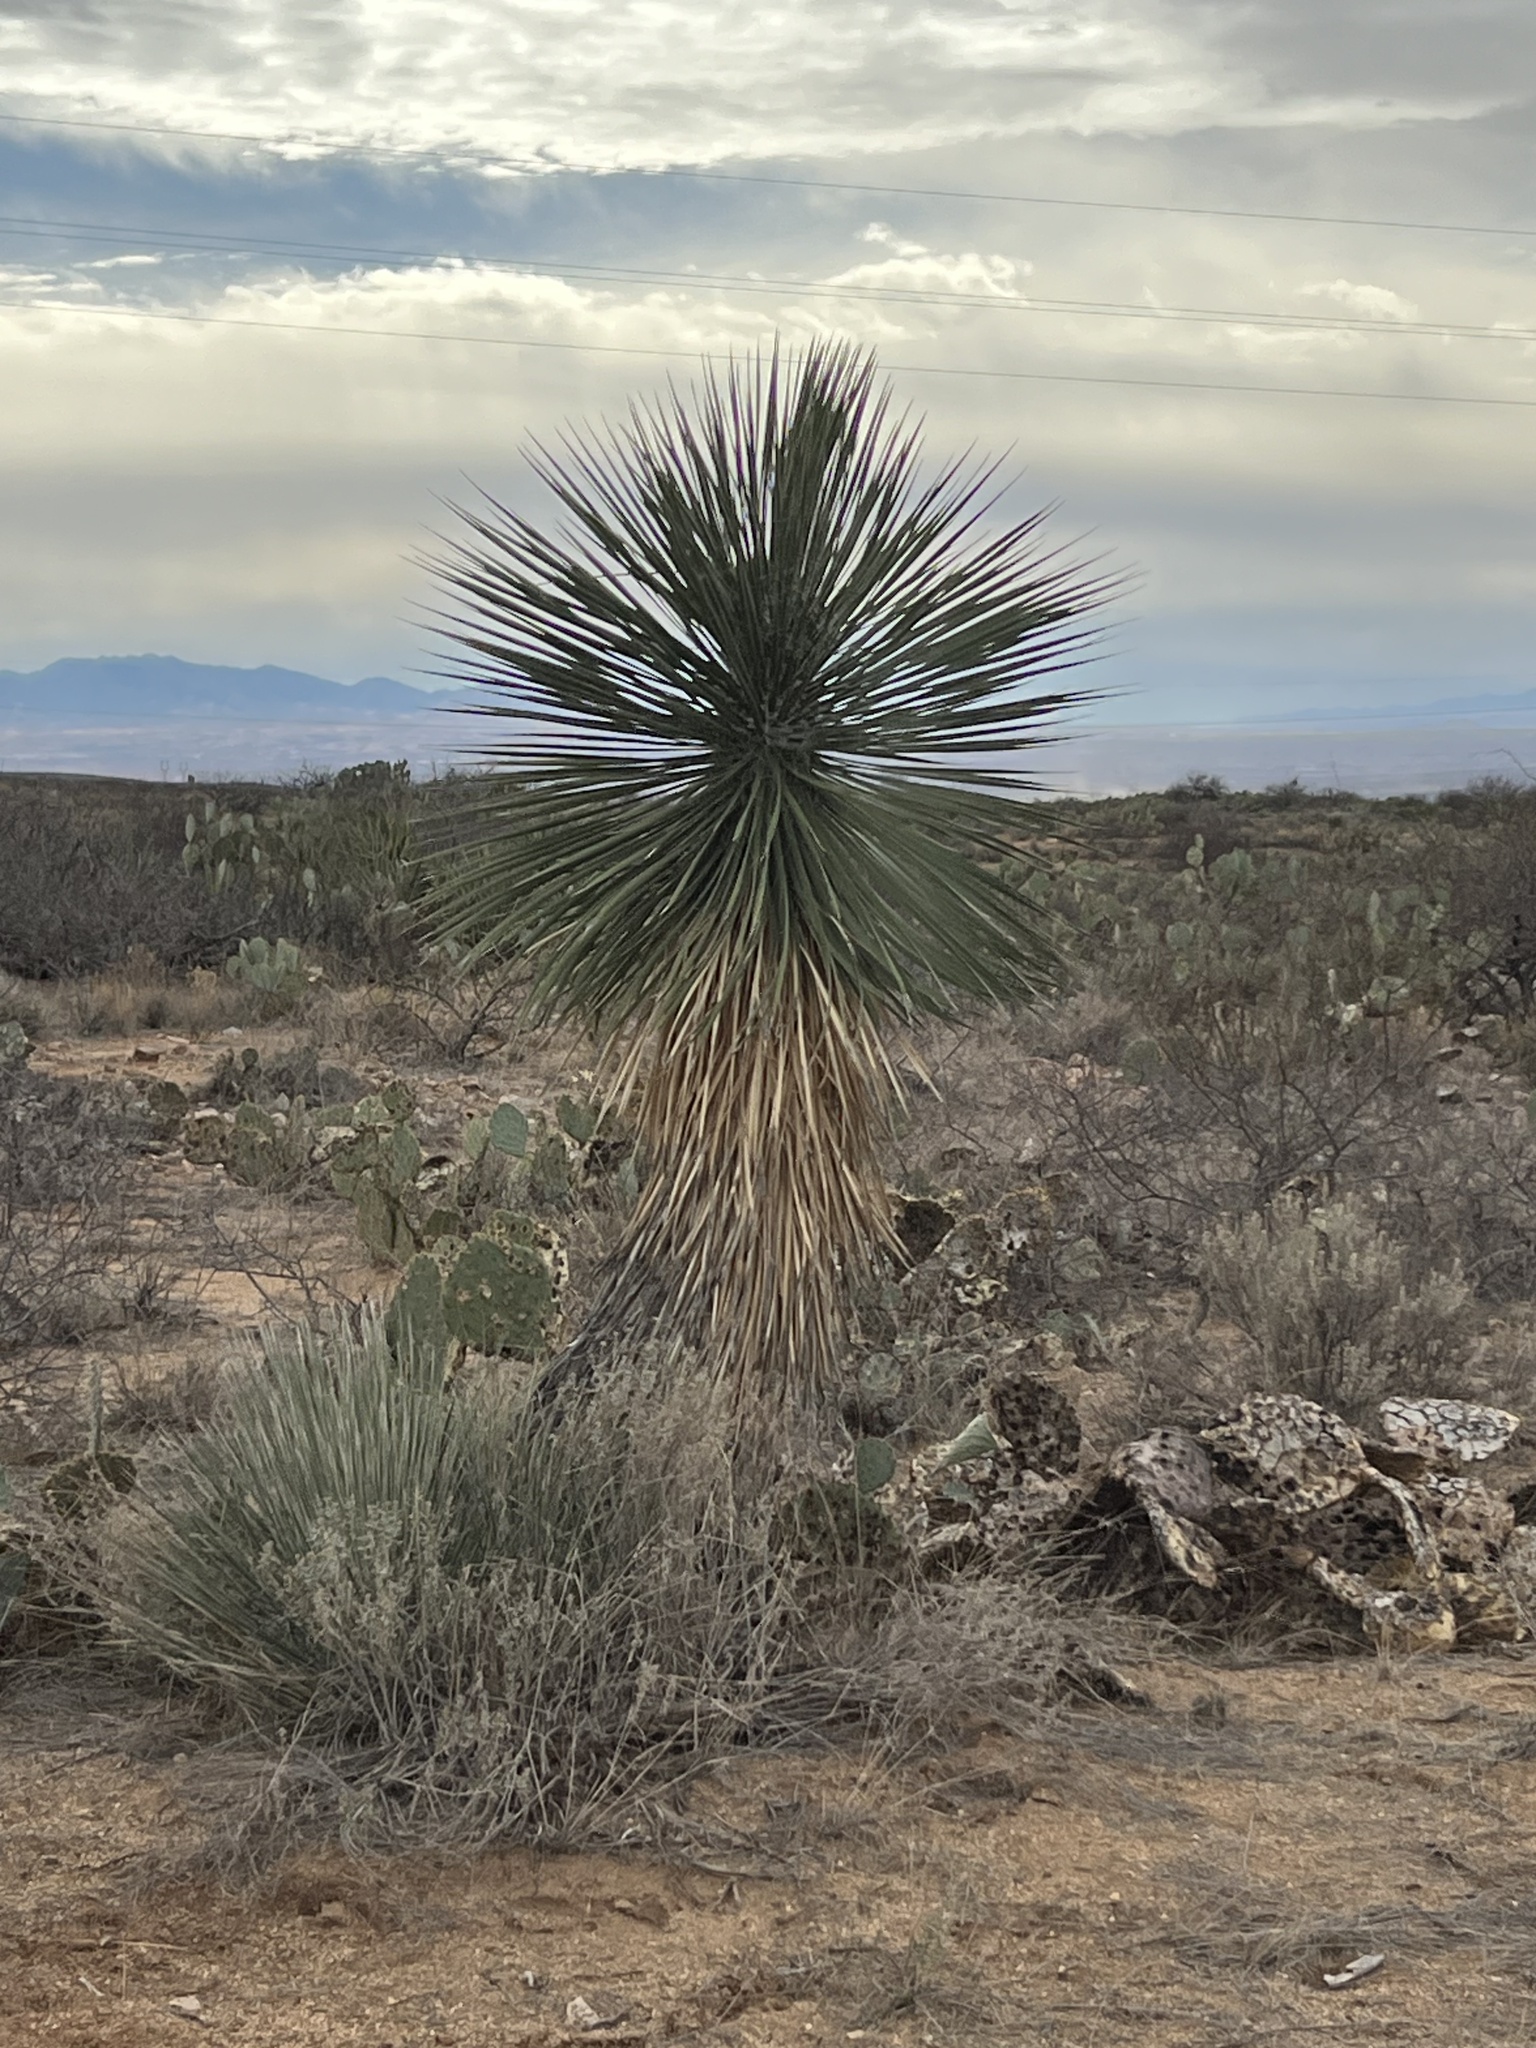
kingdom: Plantae
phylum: Tracheophyta
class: Liliopsida
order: Asparagales
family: Asparagaceae
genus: Yucca
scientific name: Yucca elata
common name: Palmella
